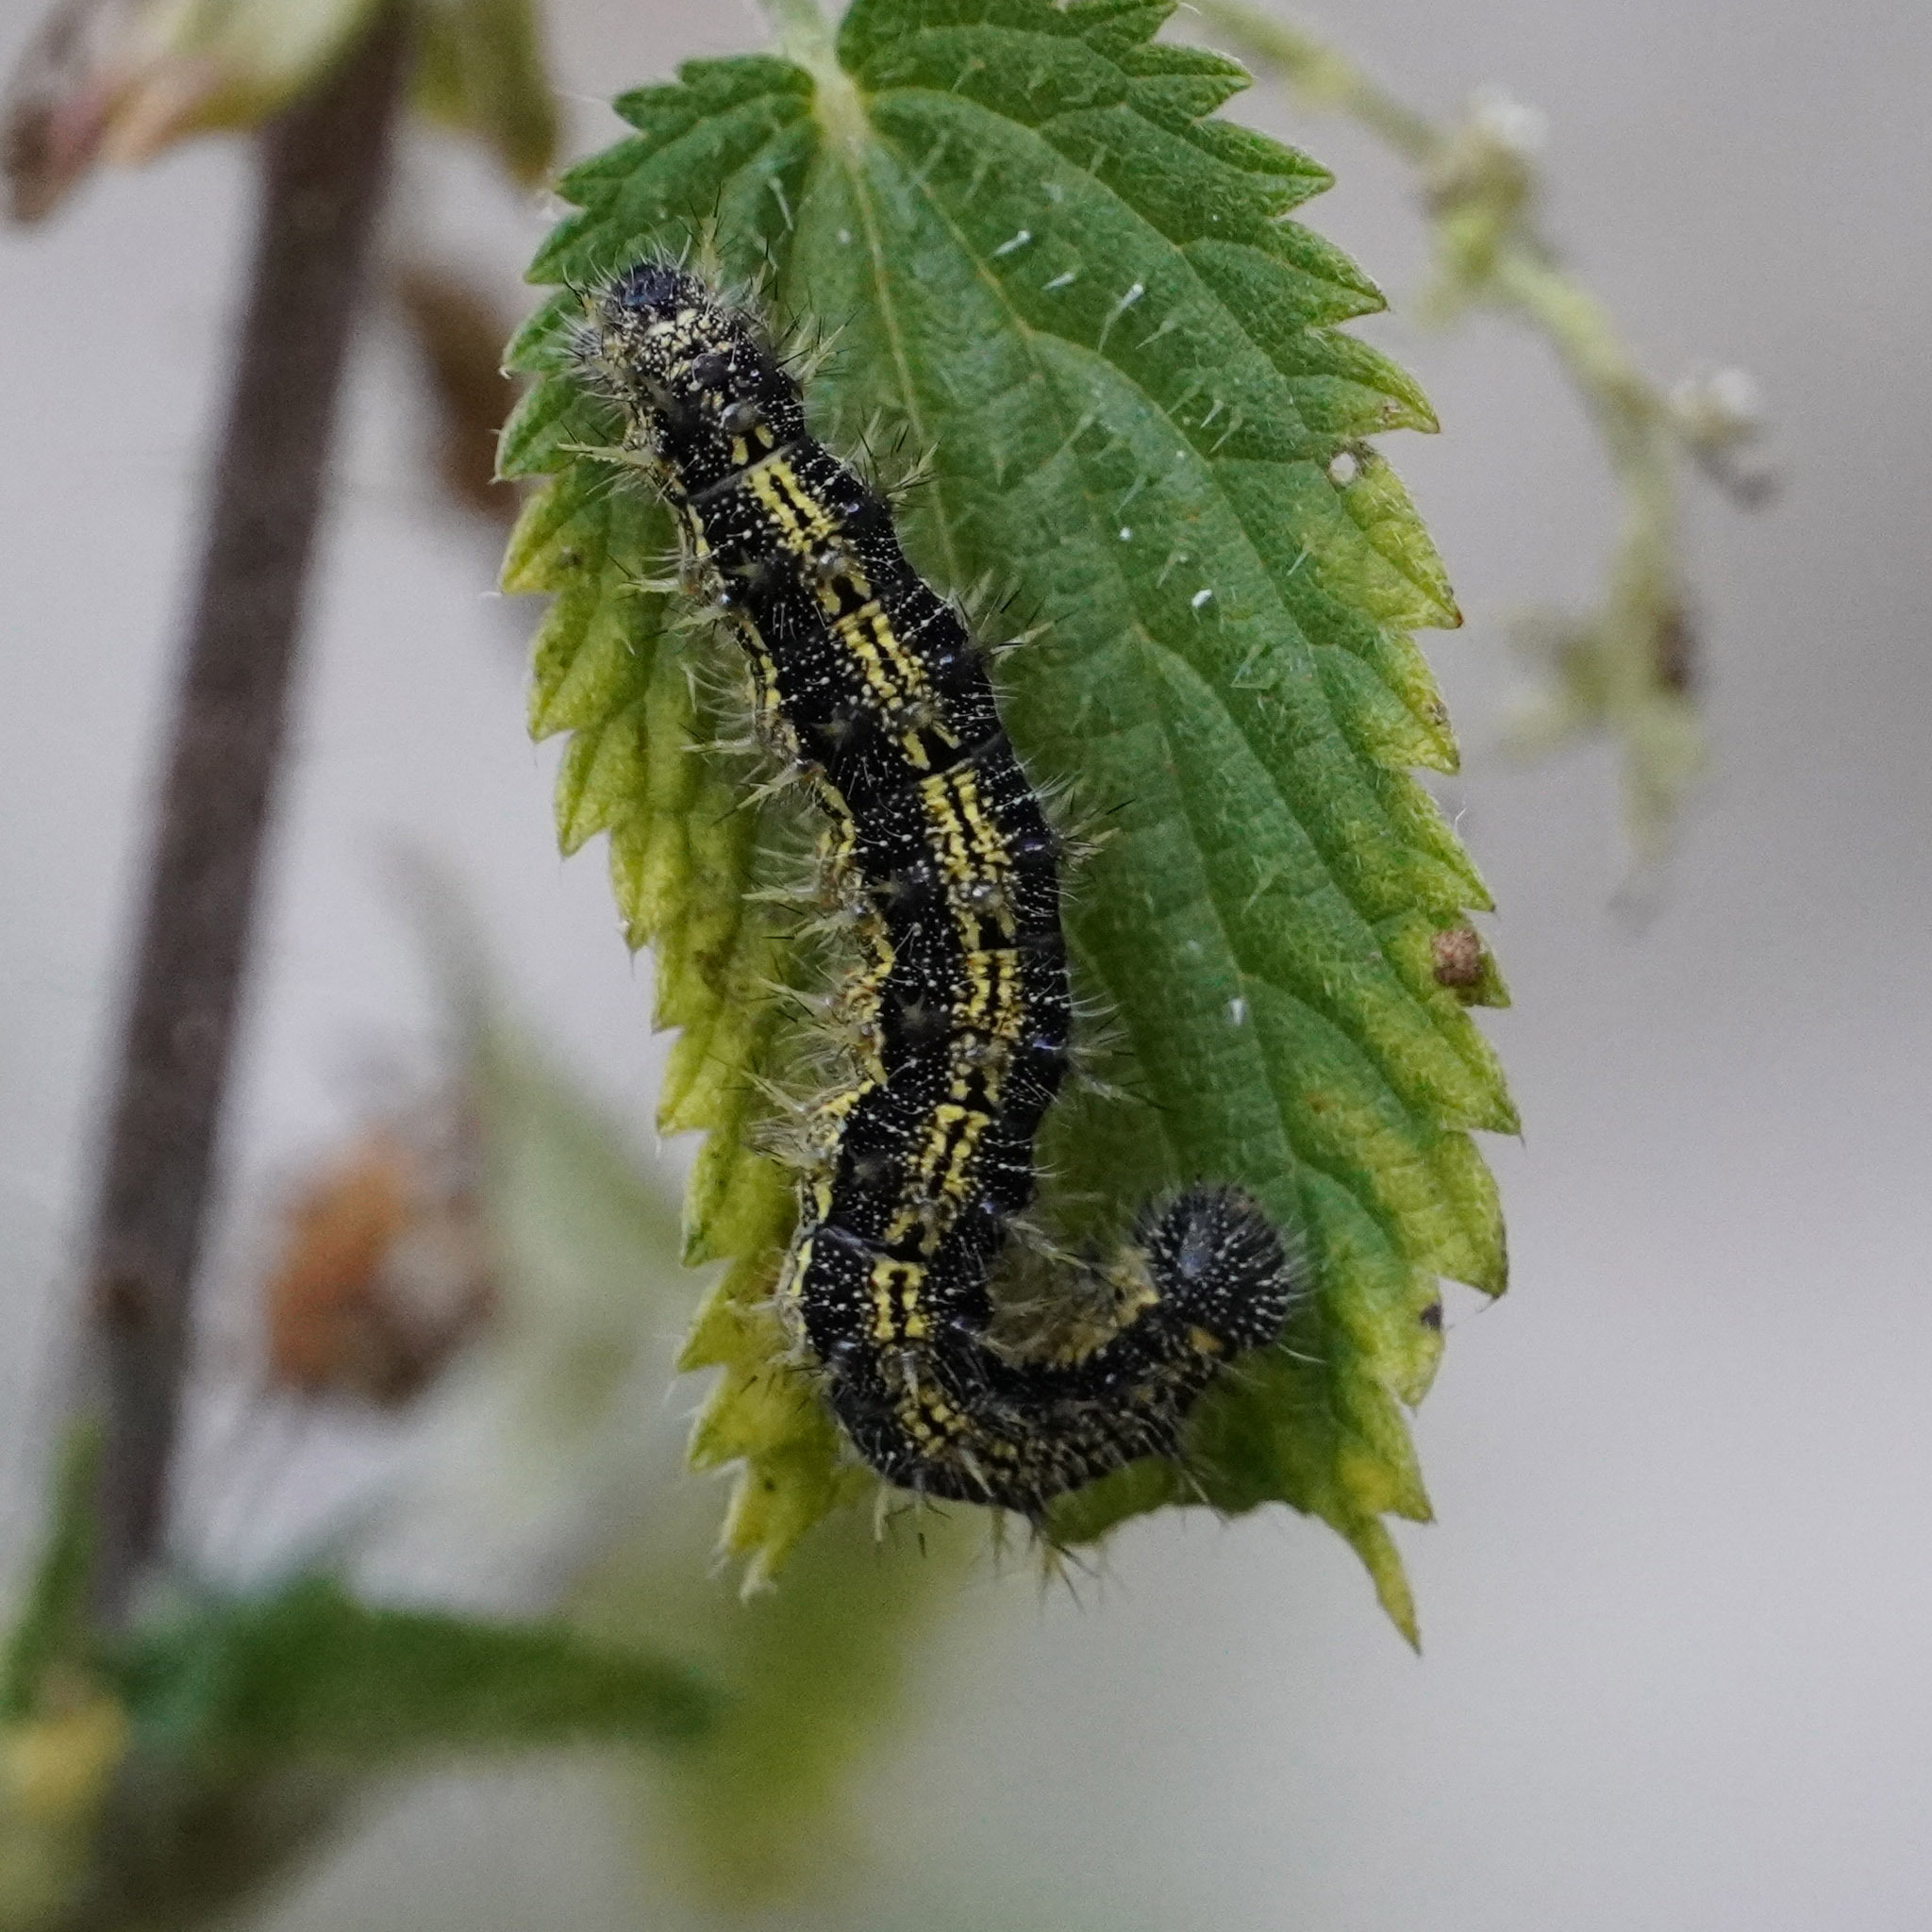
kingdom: Animalia
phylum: Arthropoda
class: Insecta
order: Lepidoptera
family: Nymphalidae
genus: Aglais
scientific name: Aglais urticae
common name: Small tortoiseshell
